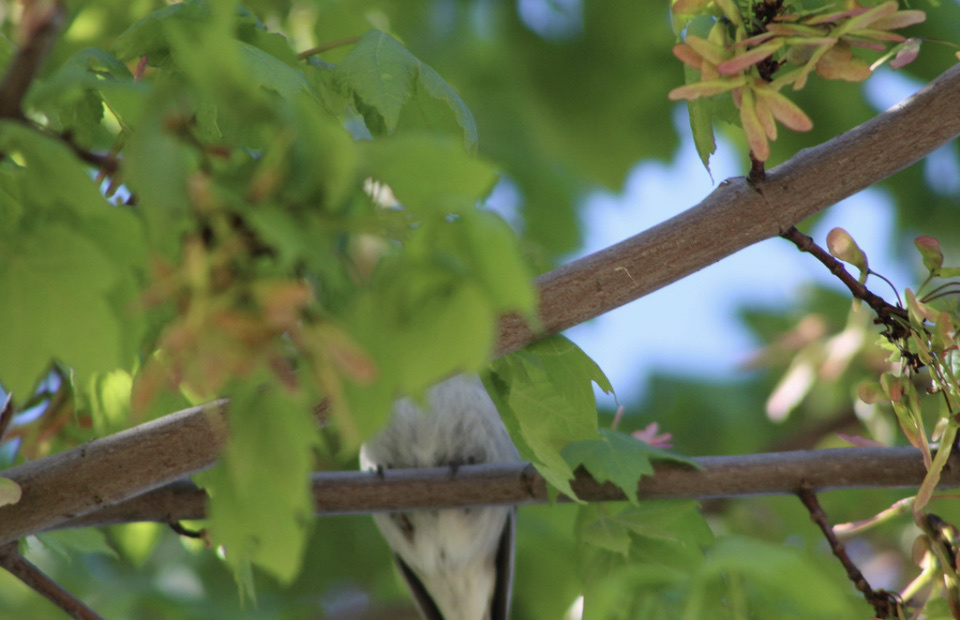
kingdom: Animalia
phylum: Chordata
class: Aves
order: Passeriformes
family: Passerellidae
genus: Spizella
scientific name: Spizella passerina
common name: Chipping sparrow
